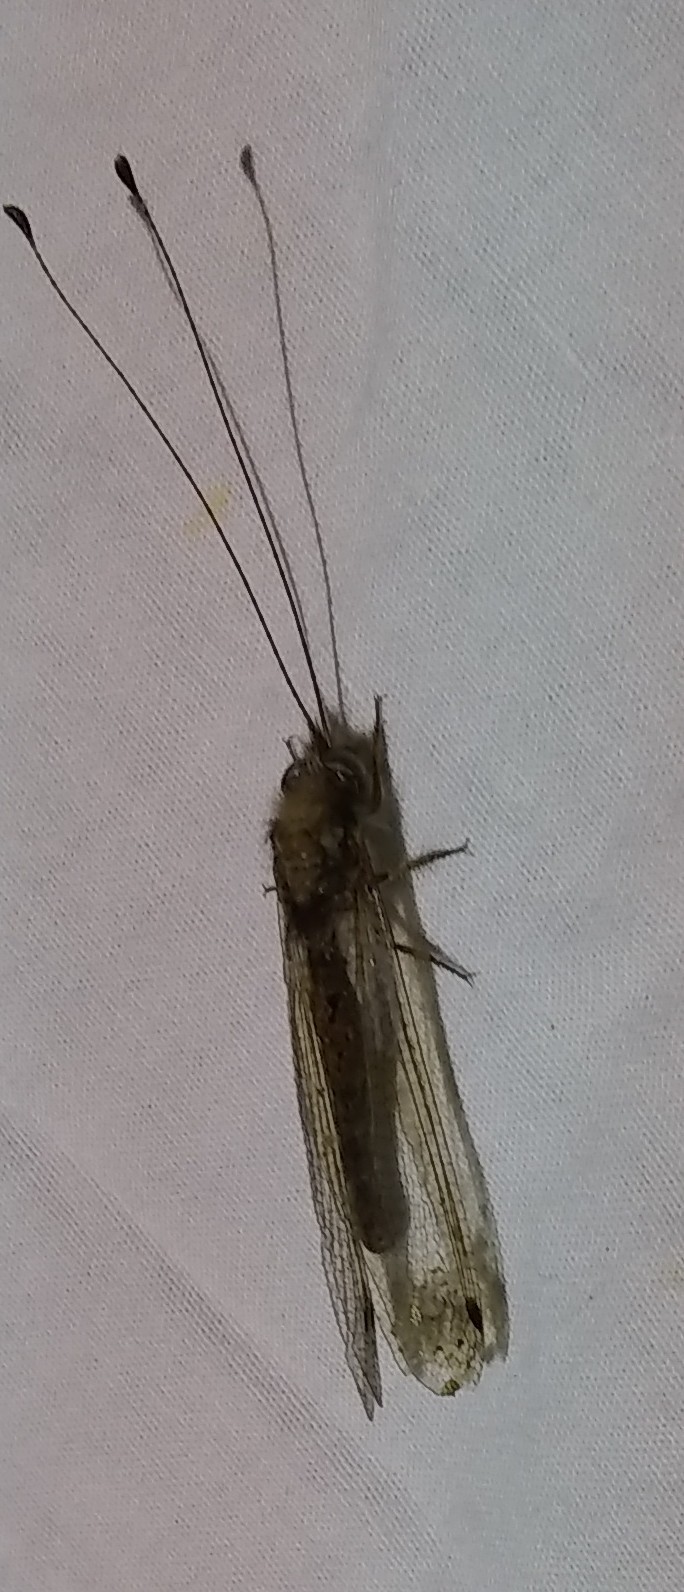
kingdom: Animalia
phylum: Arthropoda
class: Insecta
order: Neuroptera
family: Ascalaphidae
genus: Ululodes
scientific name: Ululodes macleayanus
